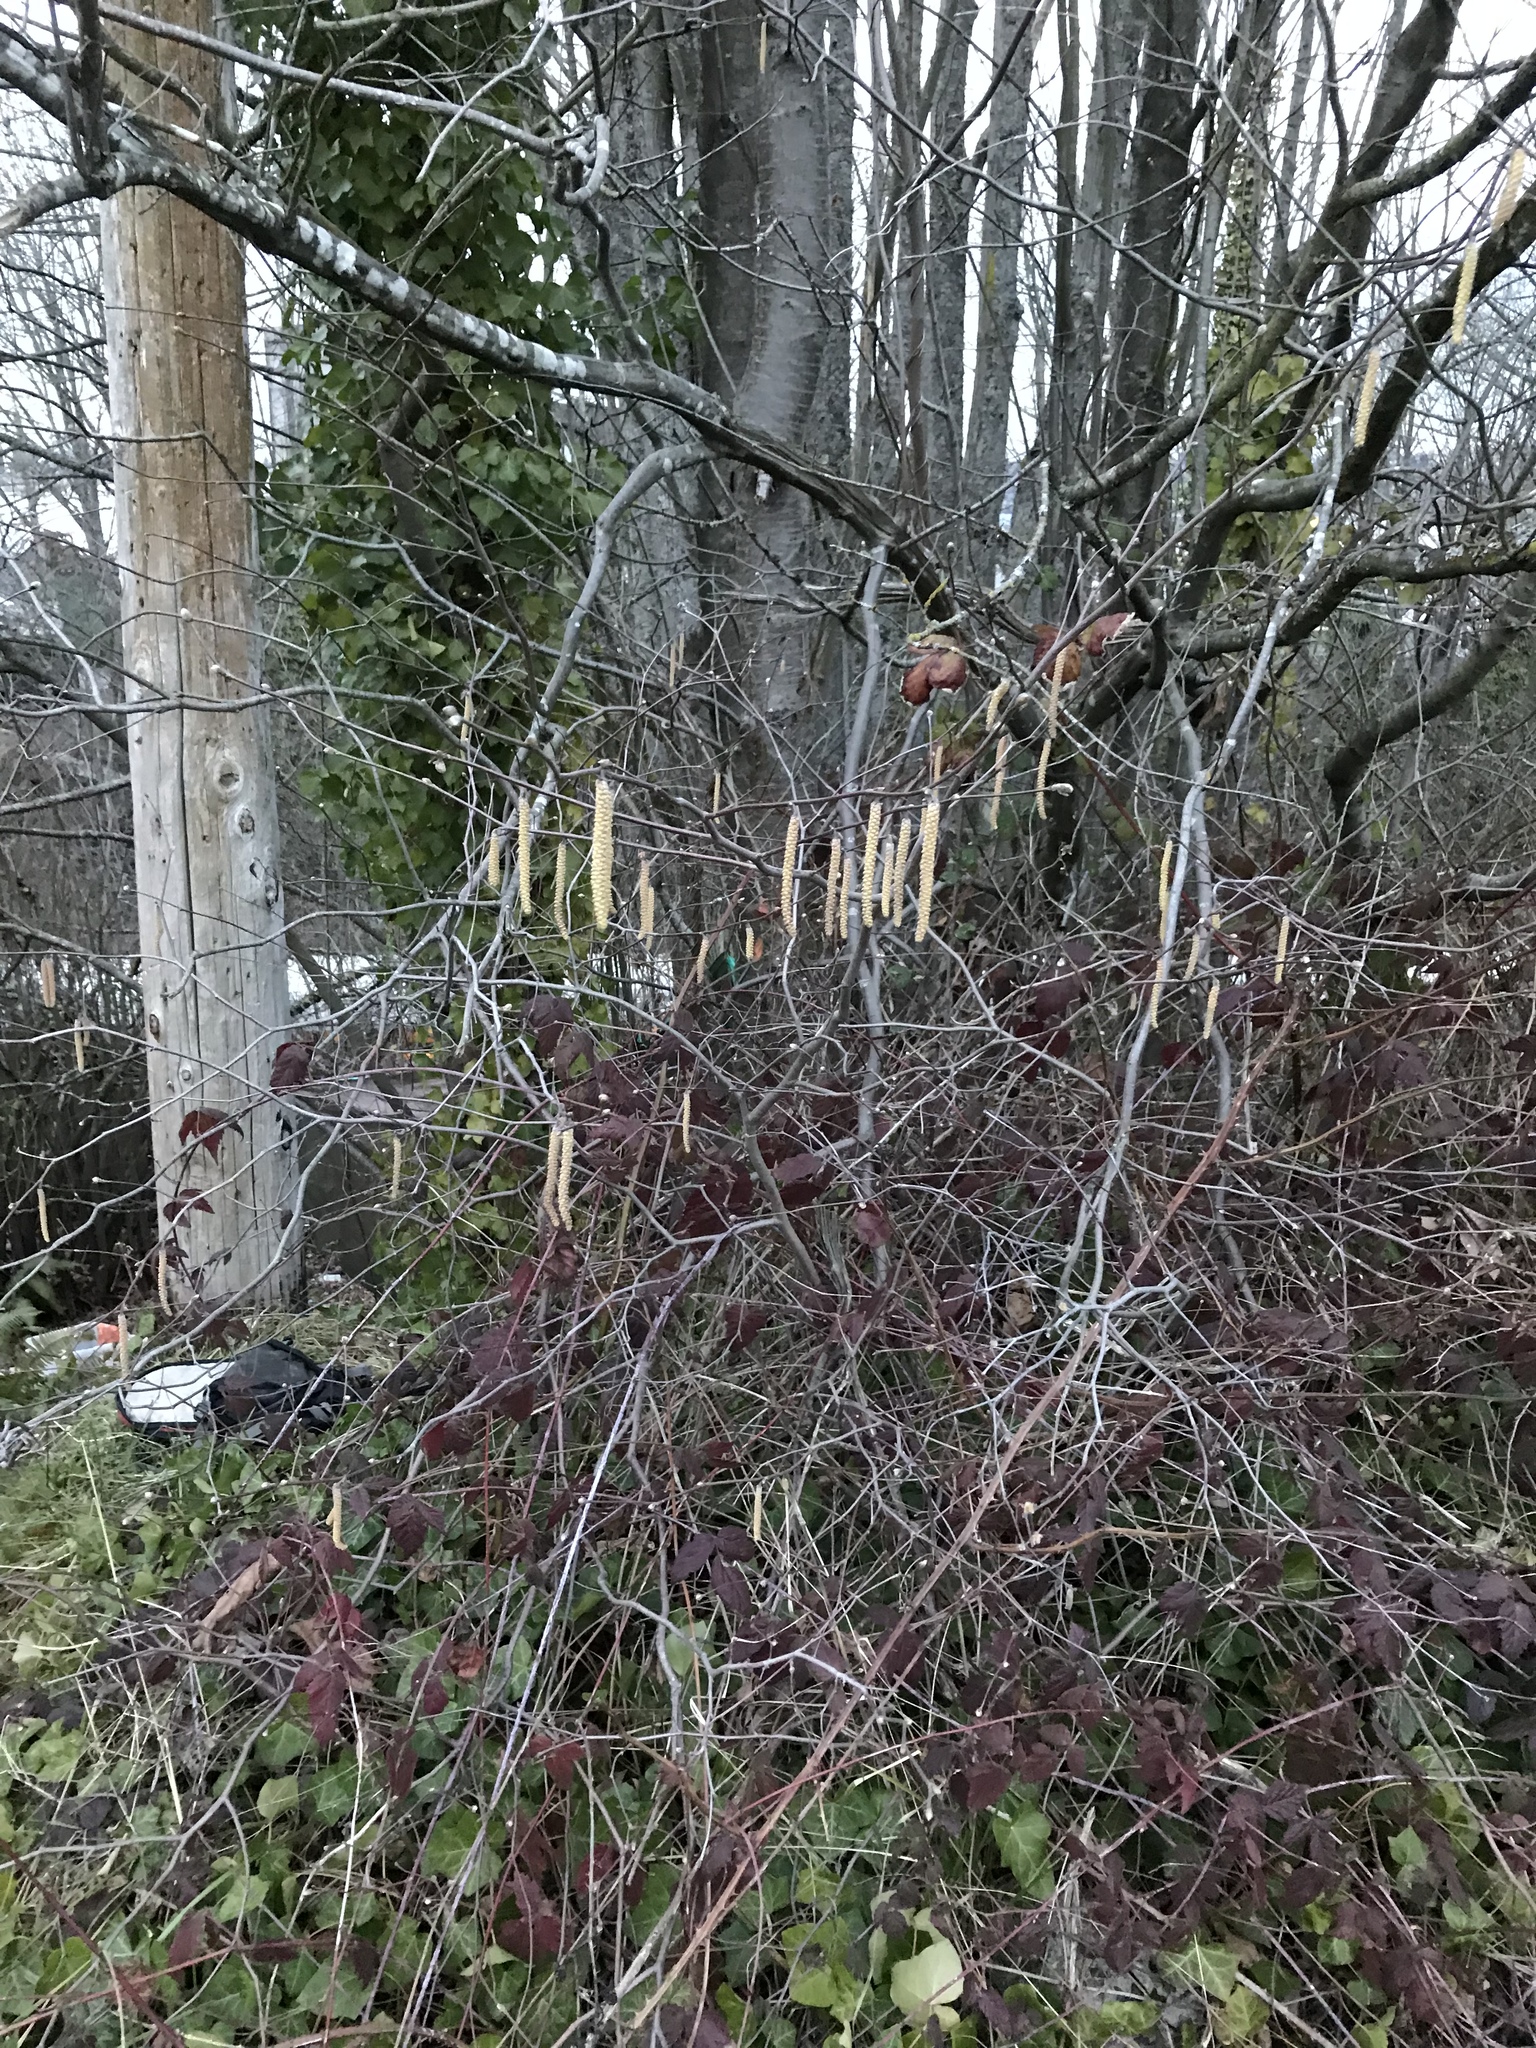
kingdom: Plantae
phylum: Tracheophyta
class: Magnoliopsida
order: Fagales
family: Betulaceae
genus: Corylus
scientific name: Corylus cornuta
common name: Beaked hazel
